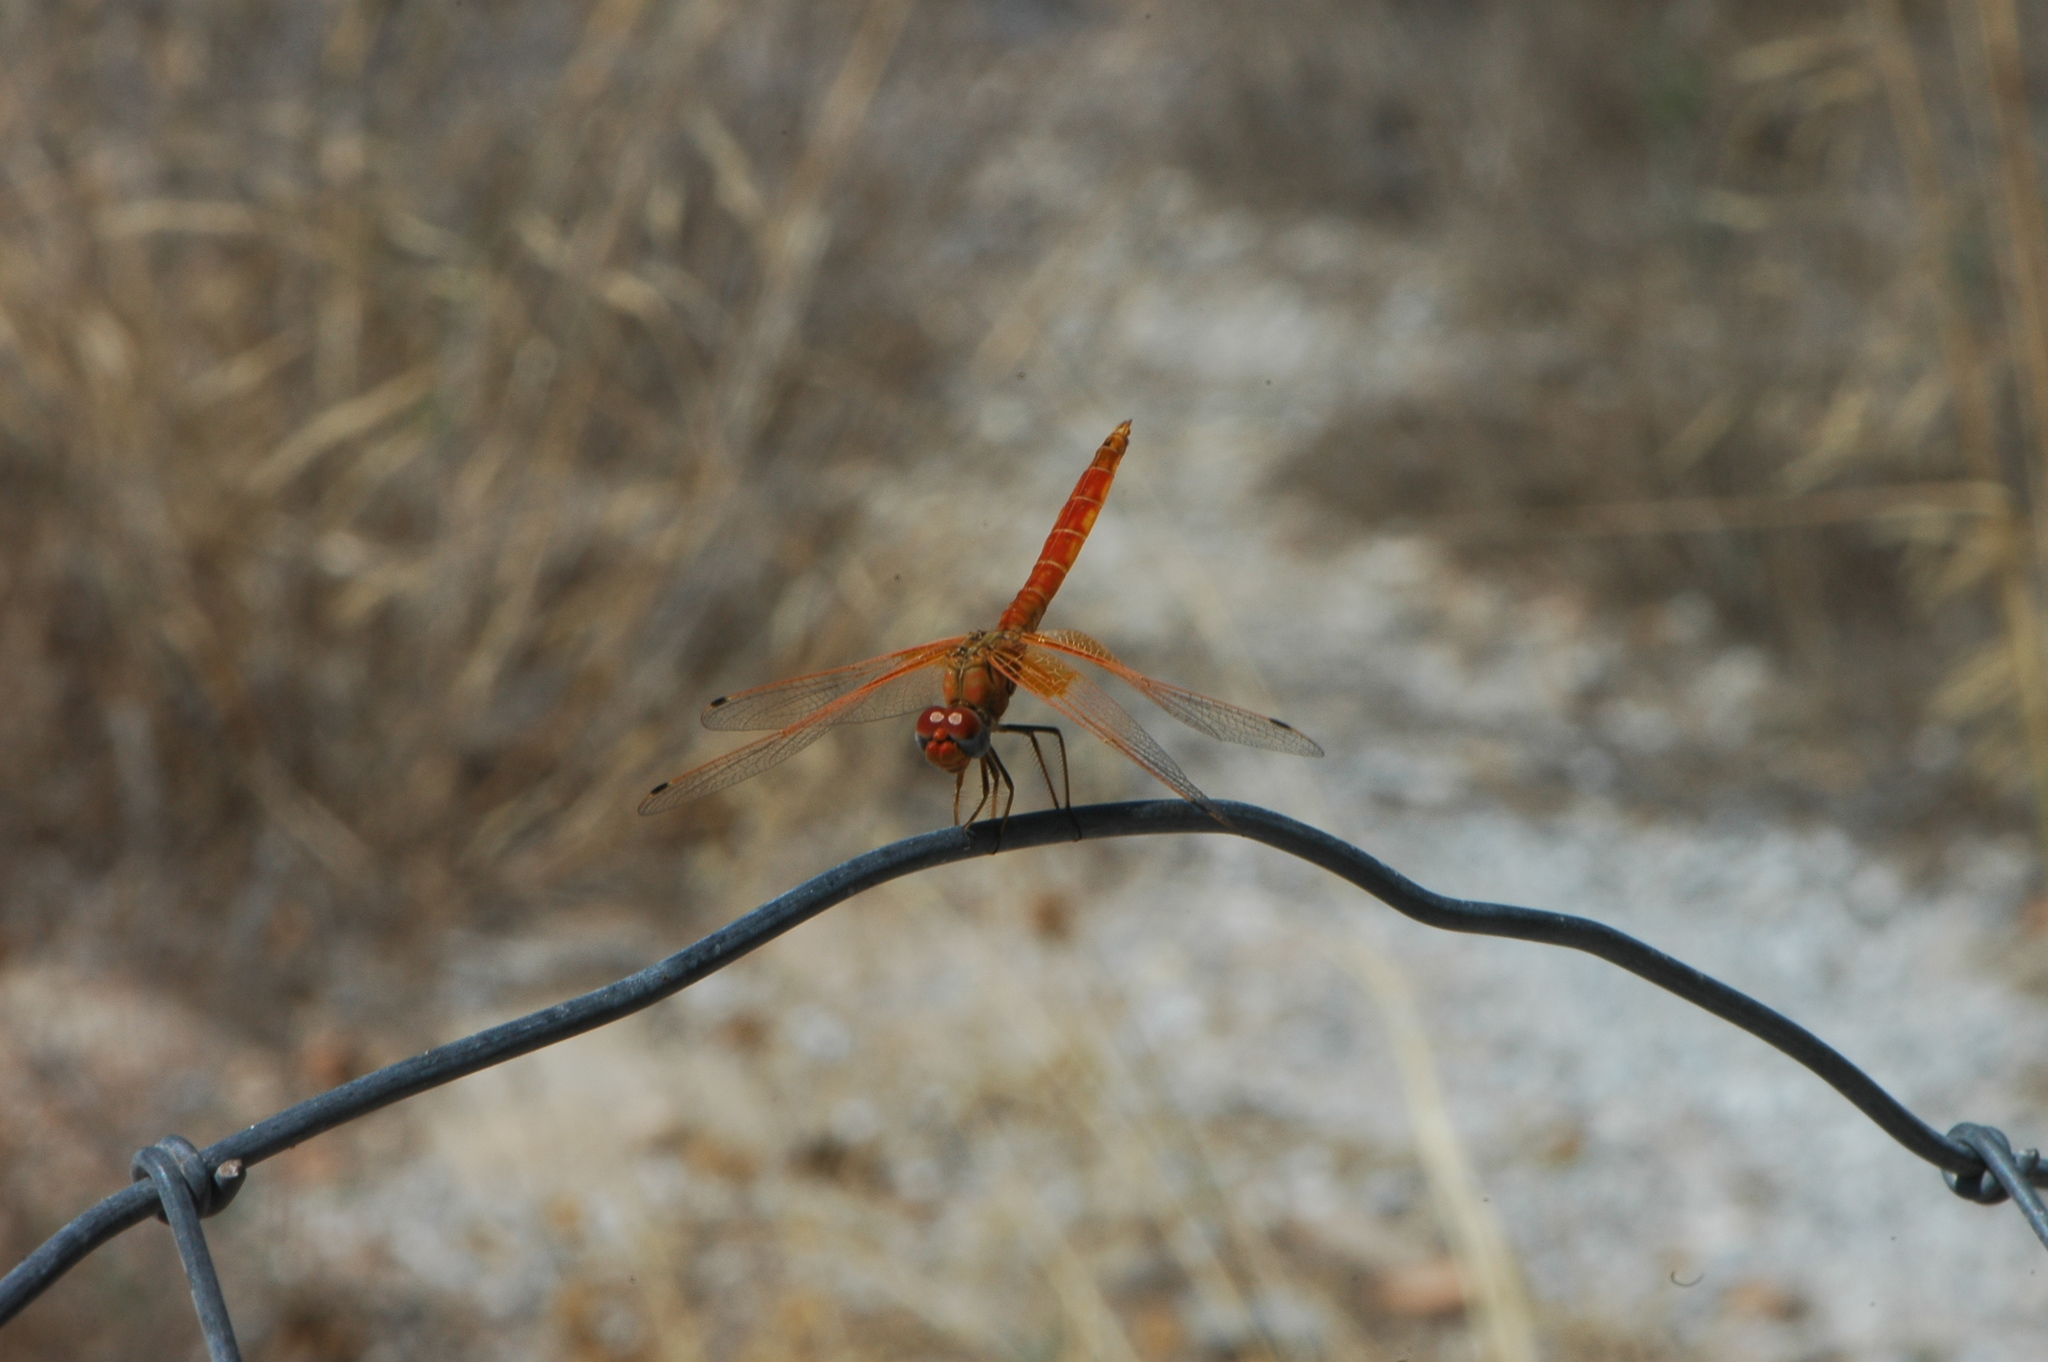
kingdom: Animalia
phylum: Arthropoda
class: Insecta
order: Odonata
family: Libellulidae
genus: Trithemis
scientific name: Trithemis kirbyi
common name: Kirby's dropwing
